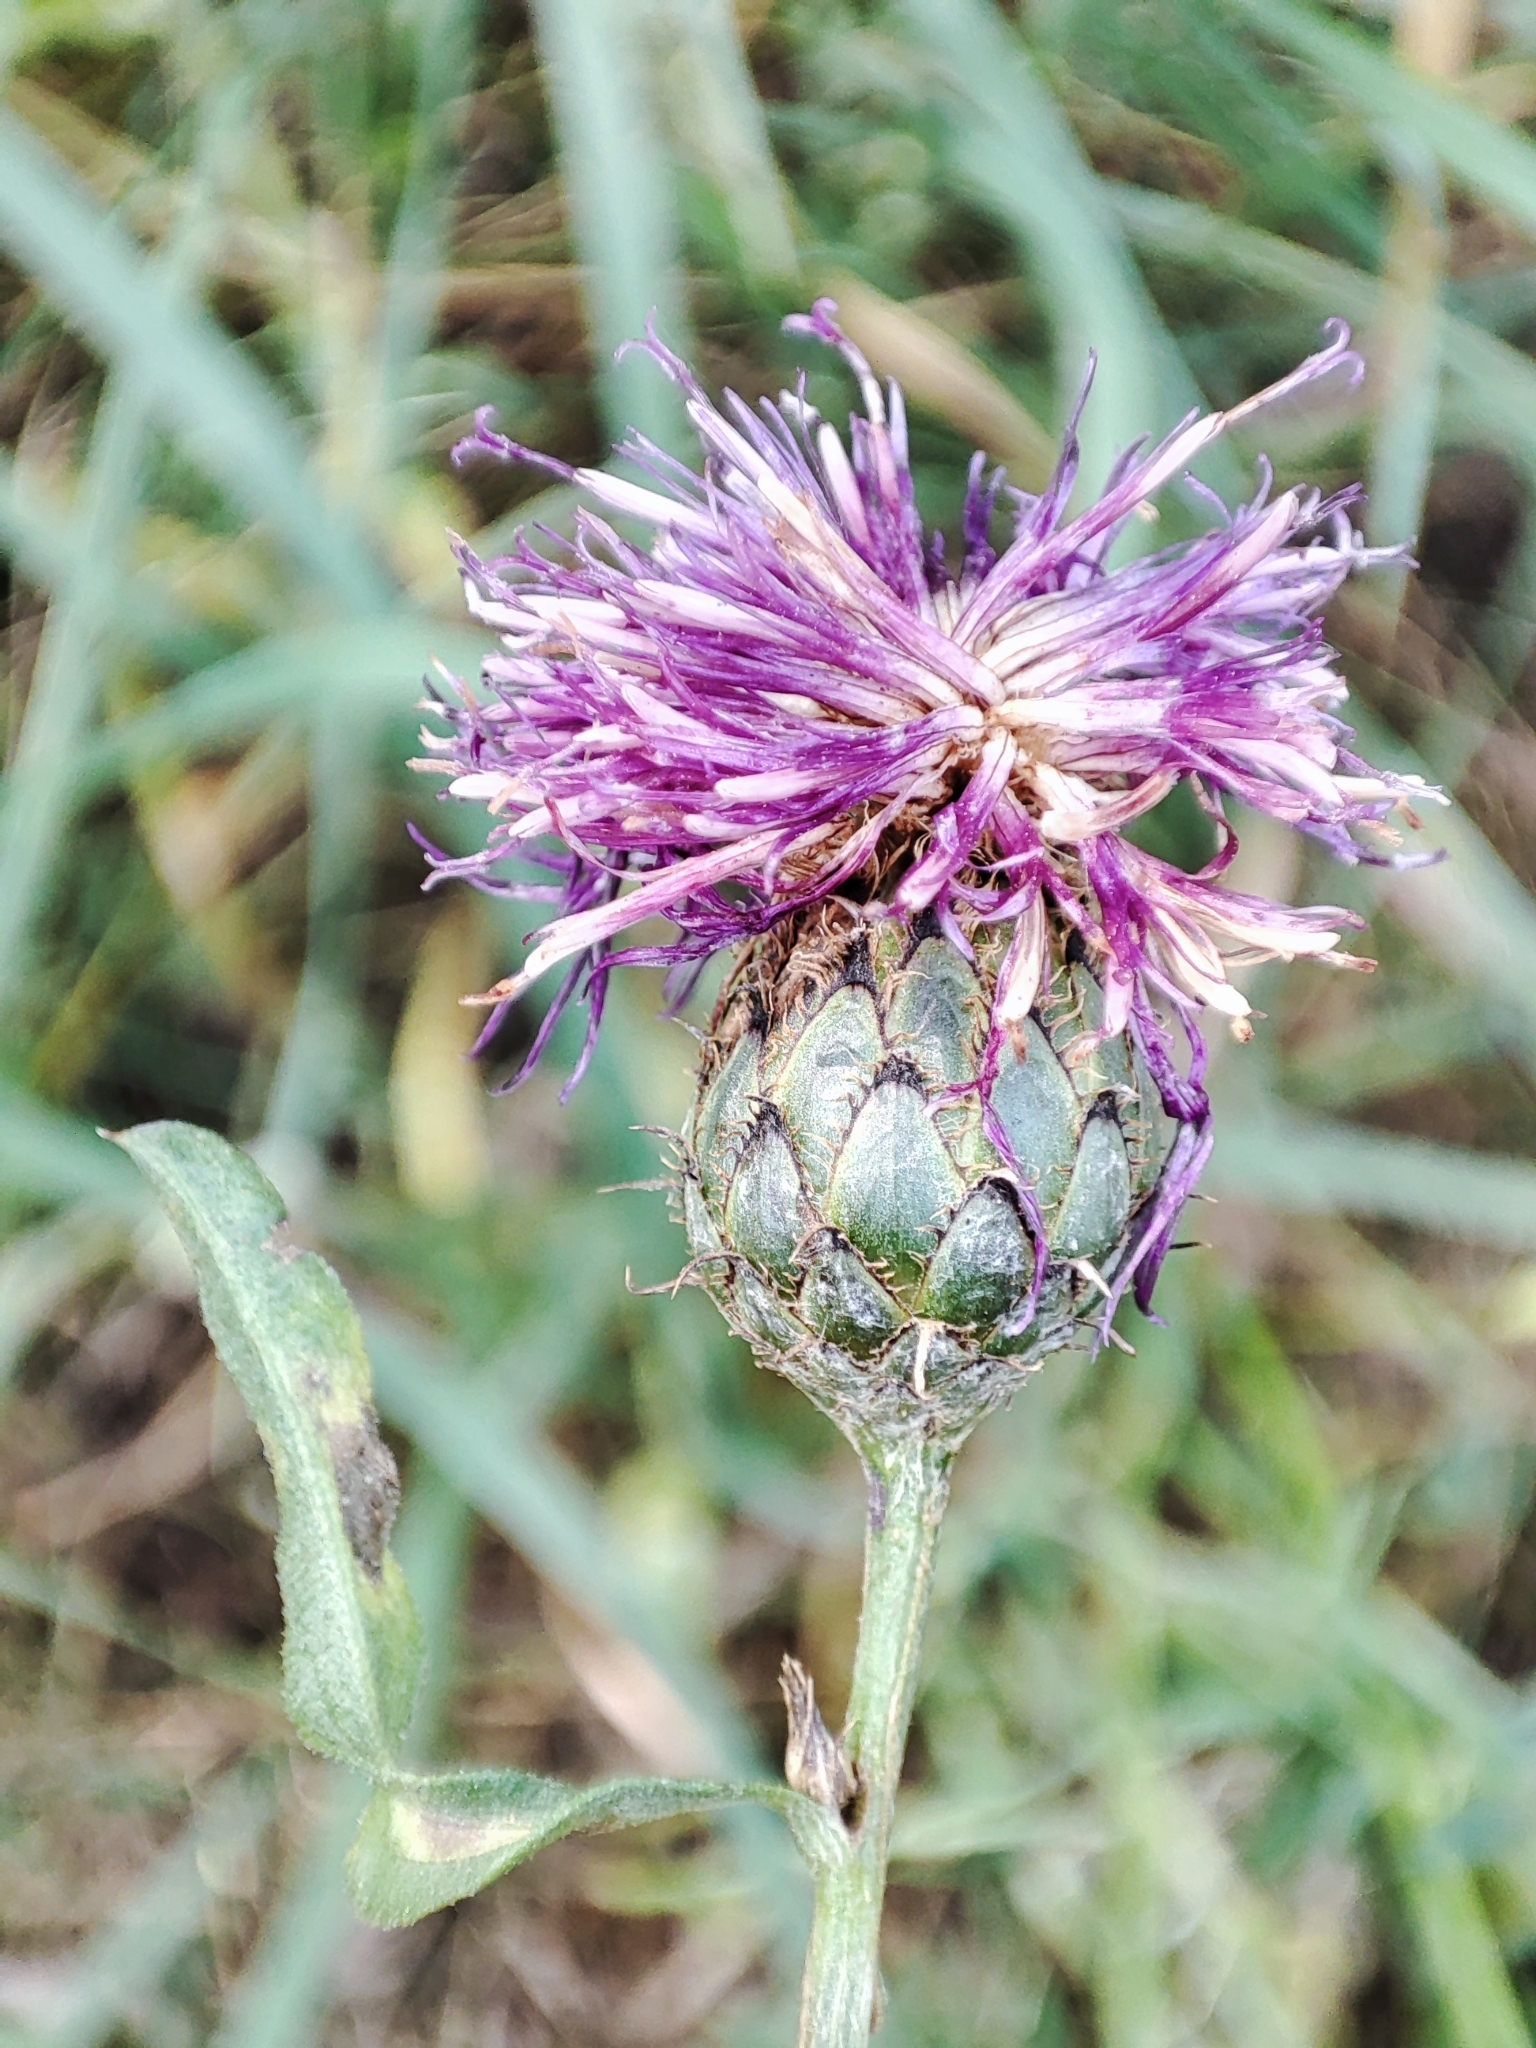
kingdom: Plantae
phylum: Tracheophyta
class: Magnoliopsida
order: Asterales
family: Asteraceae
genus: Centaurea
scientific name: Centaurea apiculata
